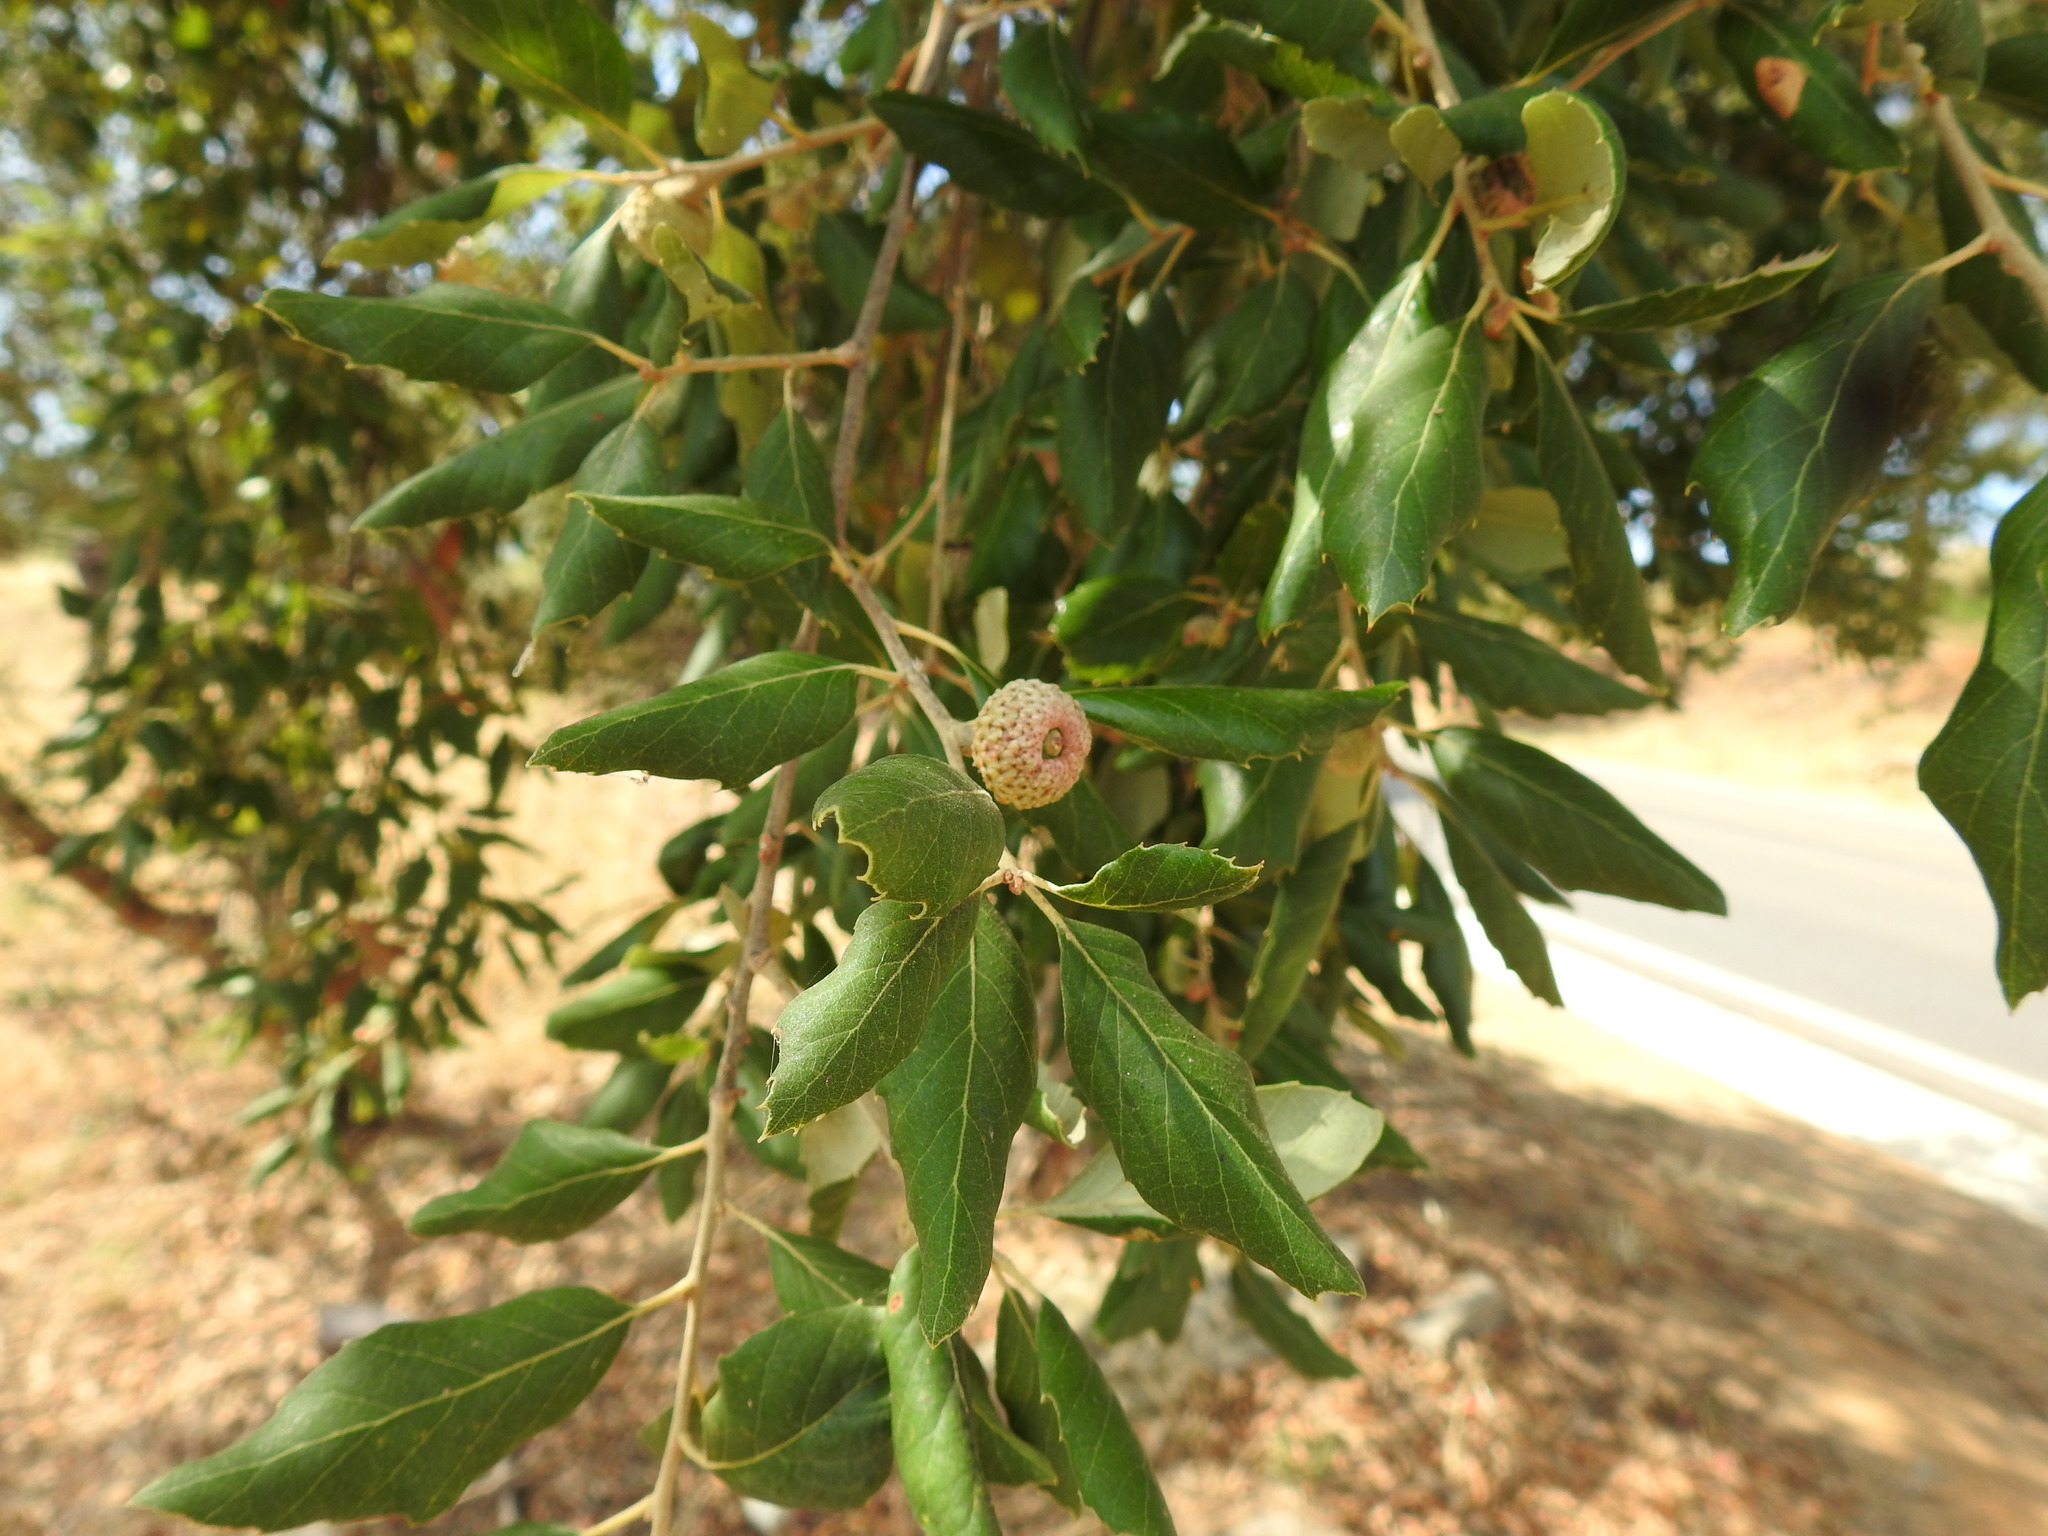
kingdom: Plantae
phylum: Tracheophyta
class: Magnoliopsida
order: Fagales
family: Fagaceae
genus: Quercus
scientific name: Quercus suber
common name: Cork oak
